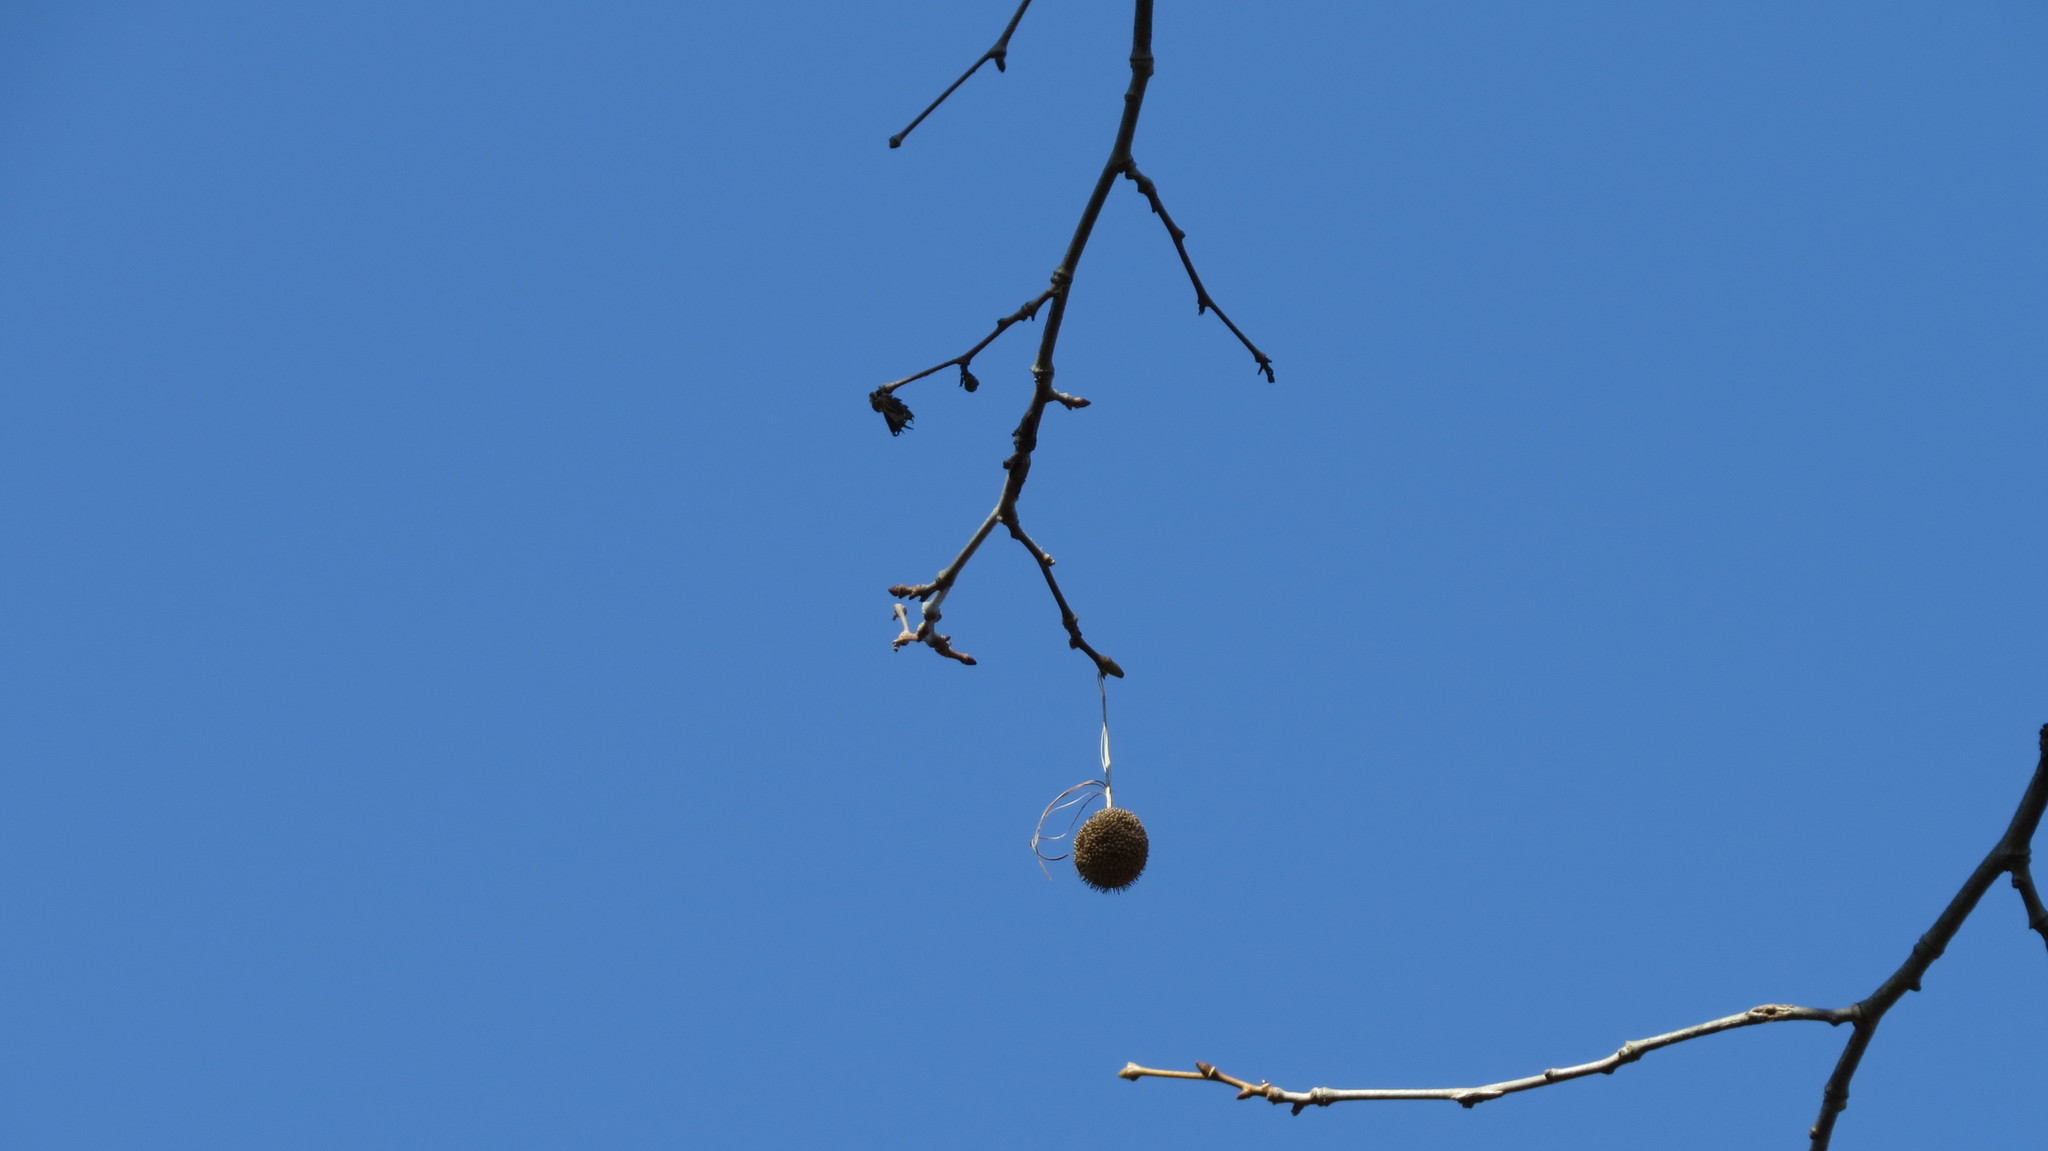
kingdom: Plantae
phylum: Tracheophyta
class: Magnoliopsida
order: Proteales
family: Platanaceae
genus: Platanus
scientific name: Platanus occidentalis
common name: American sycamore
